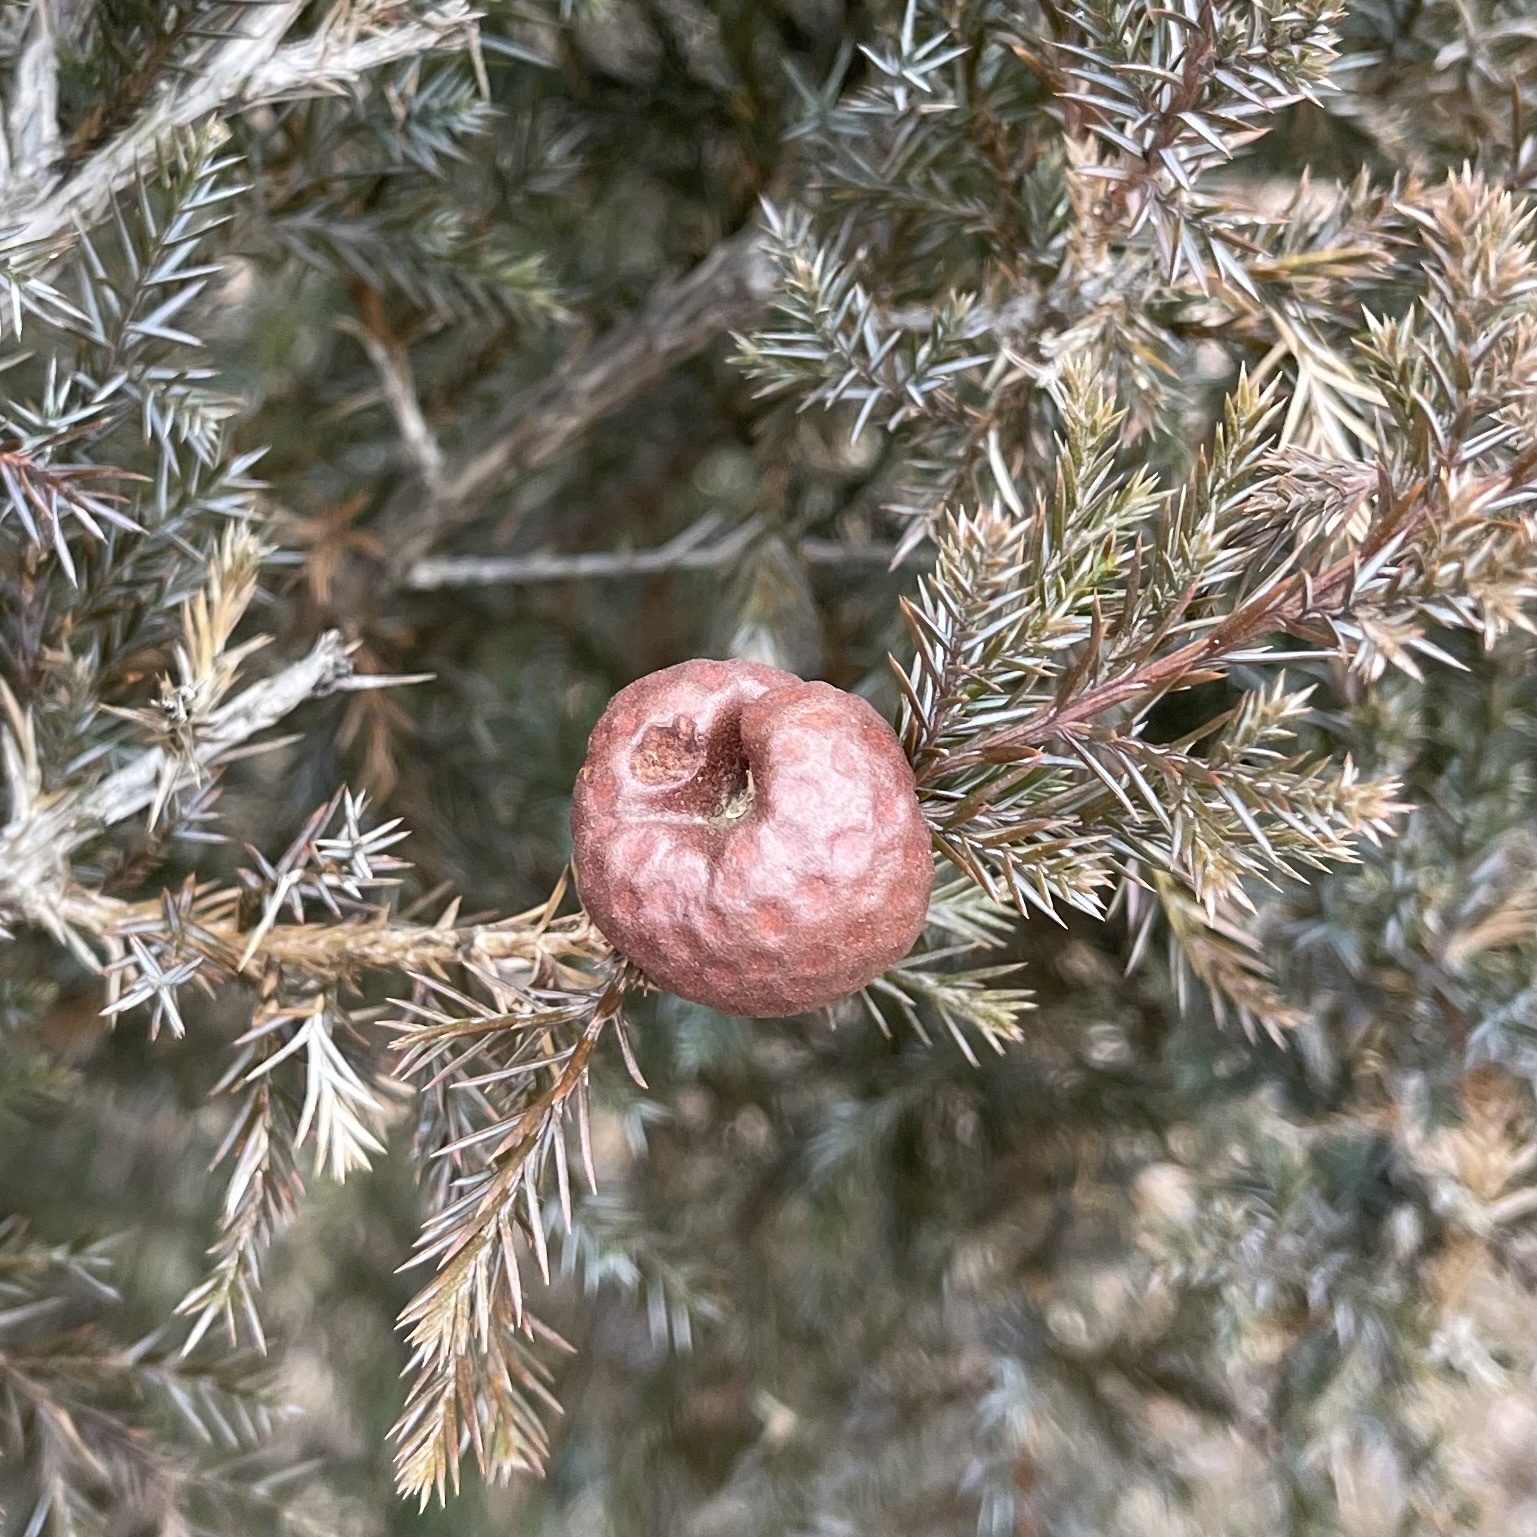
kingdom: Fungi
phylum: Basidiomycota
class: Pucciniomycetes
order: Pucciniales
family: Gymnosporangiaceae
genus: Gymnosporangium
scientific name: Gymnosporangium juniperi-virginianae
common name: Juniper-apple rust
